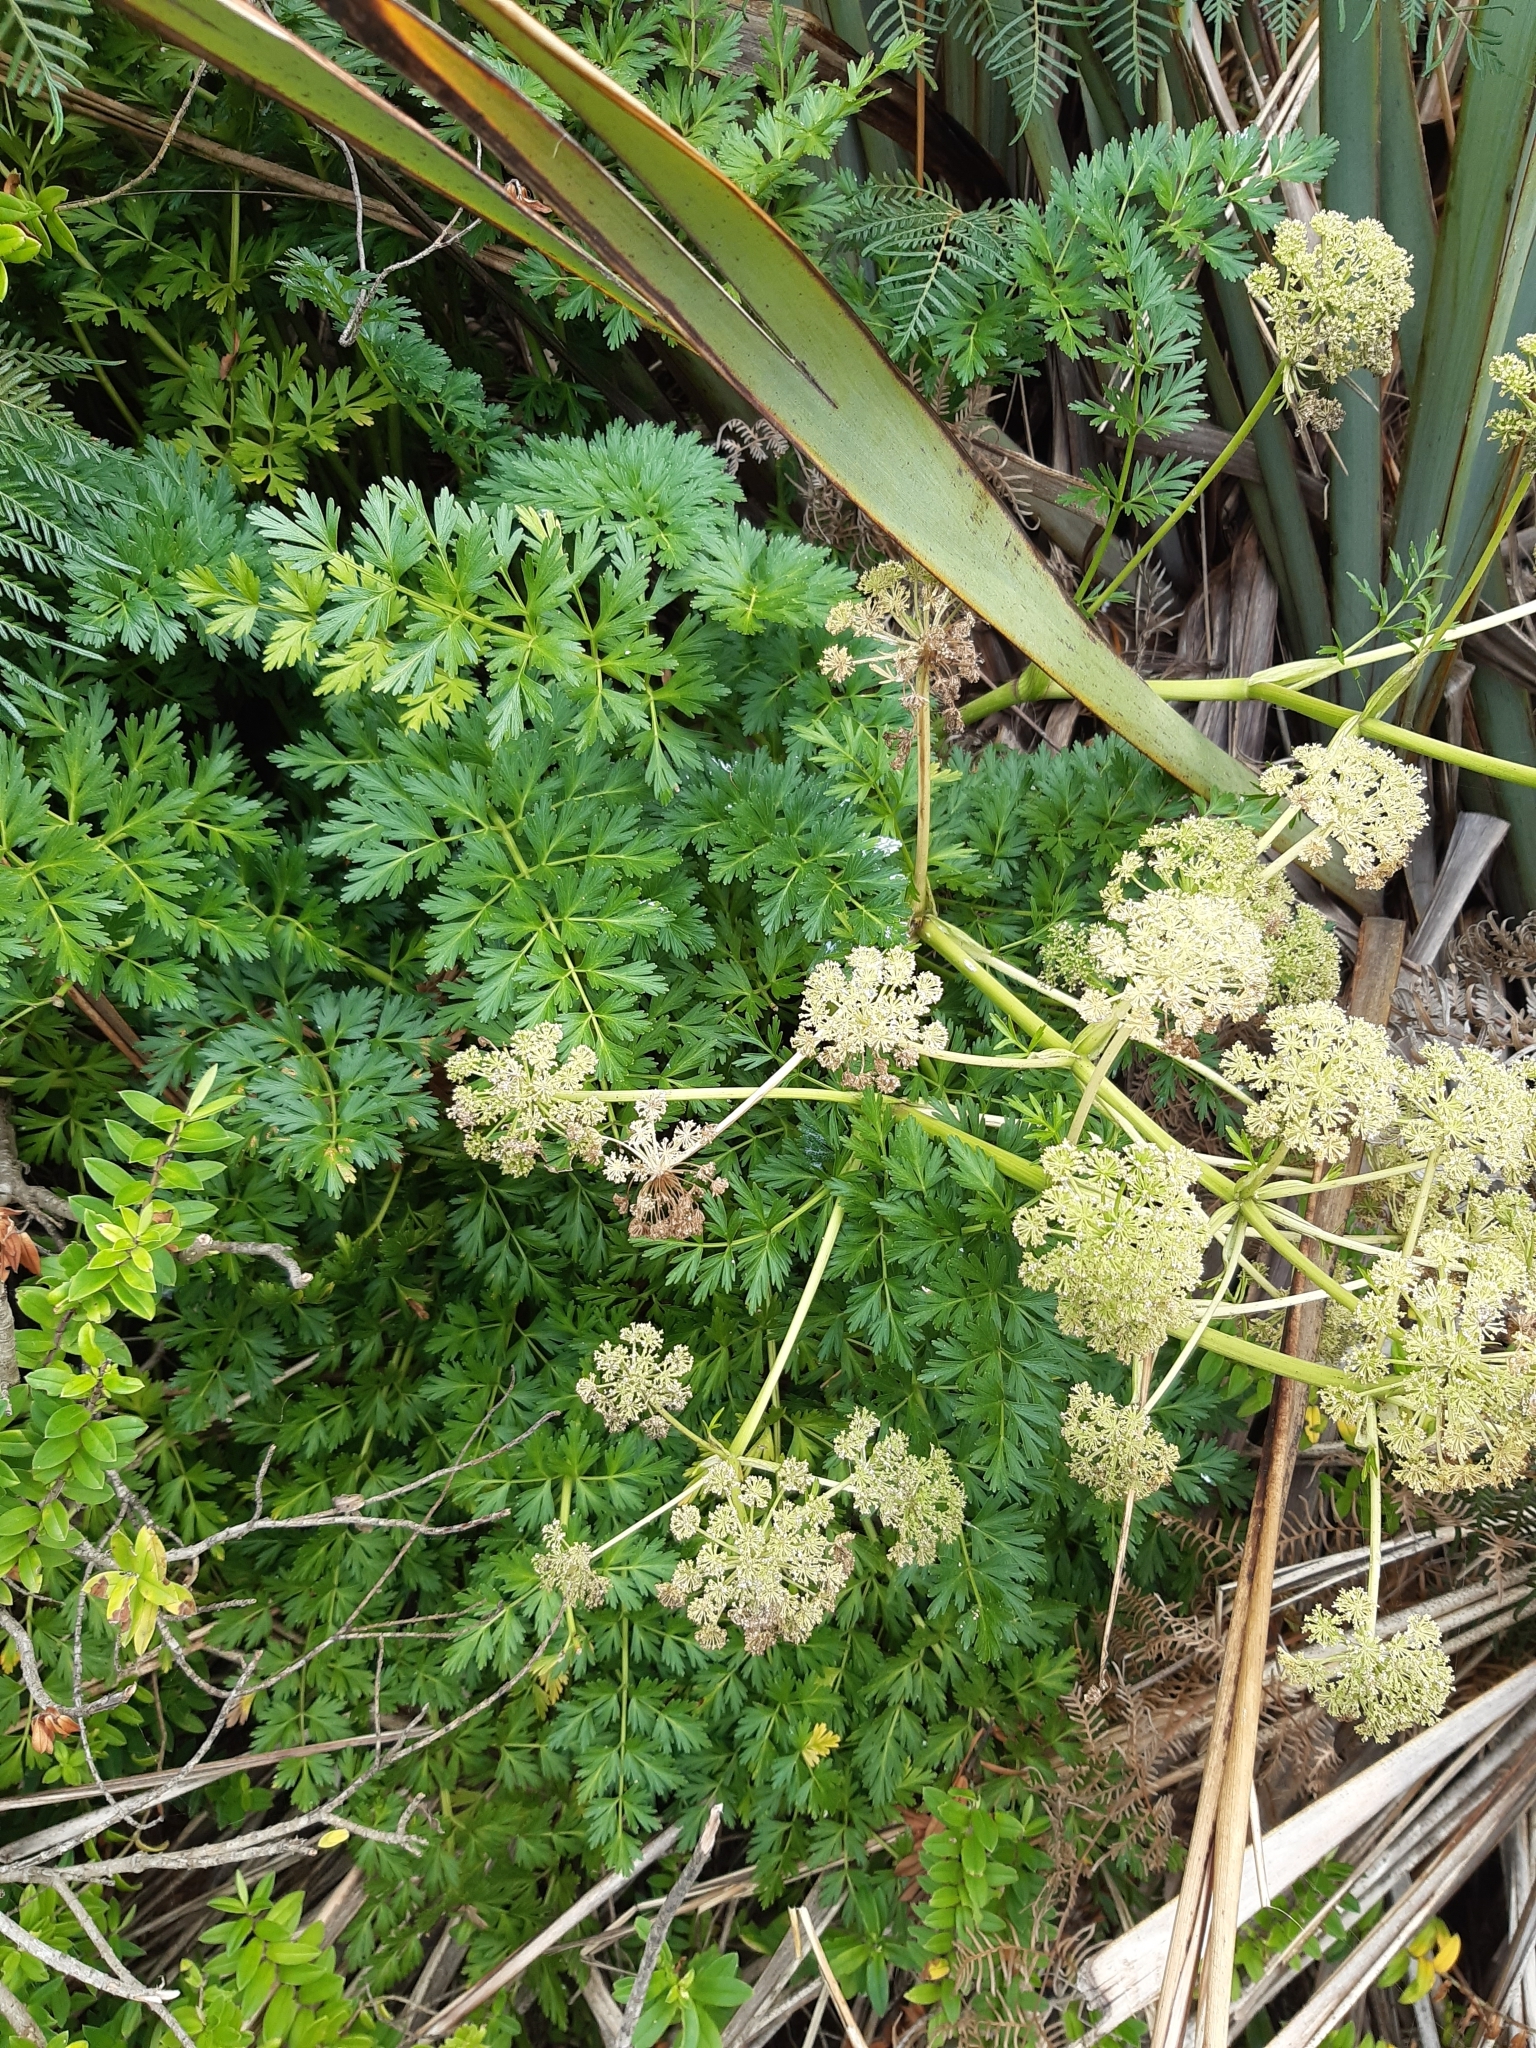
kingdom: Plantae
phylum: Tracheophyta
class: Magnoliopsida
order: Apiales
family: Apiaceae
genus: Anisotome
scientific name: Anisotome lyallii
